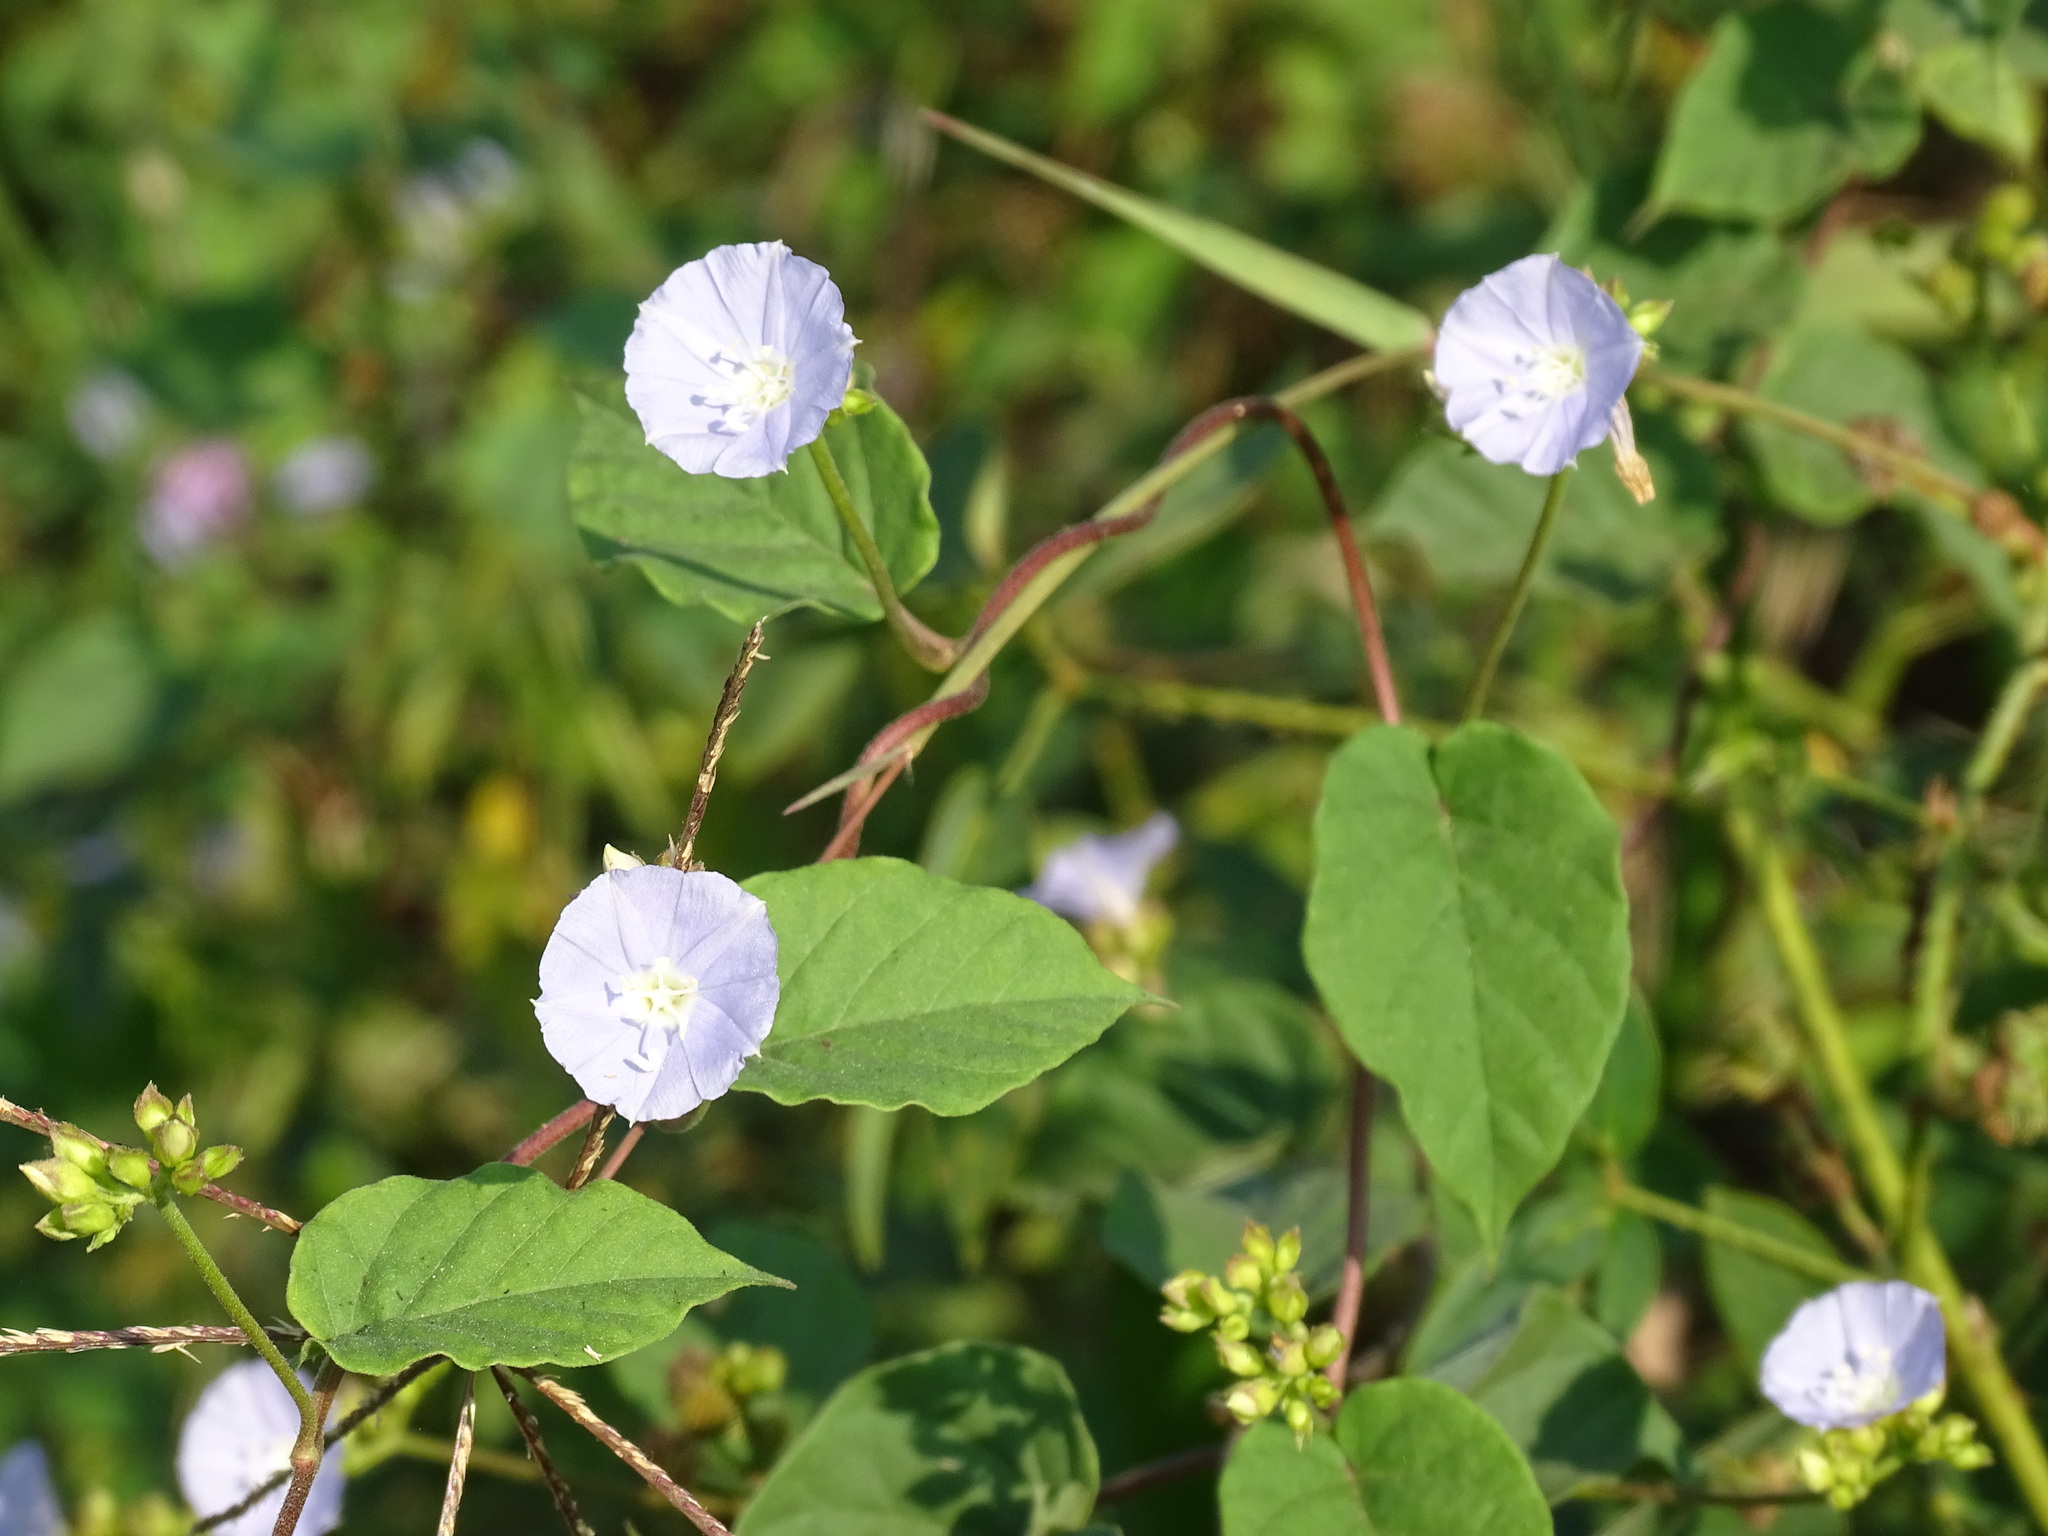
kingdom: Plantae
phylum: Tracheophyta
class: Magnoliopsida
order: Solanales
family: Convolvulaceae
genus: Jacquemontia
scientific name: Jacquemontia oaxacana
